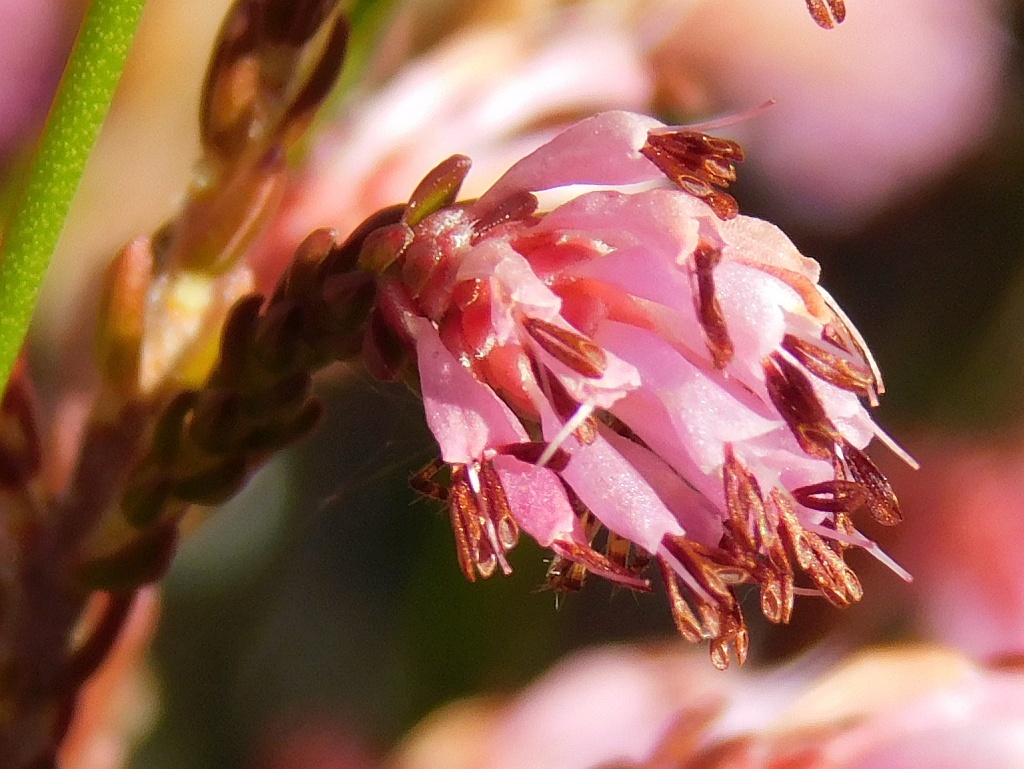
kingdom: Plantae
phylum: Tracheophyta
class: Magnoliopsida
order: Ericales
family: Ericaceae
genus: Erica
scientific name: Erica labialis
